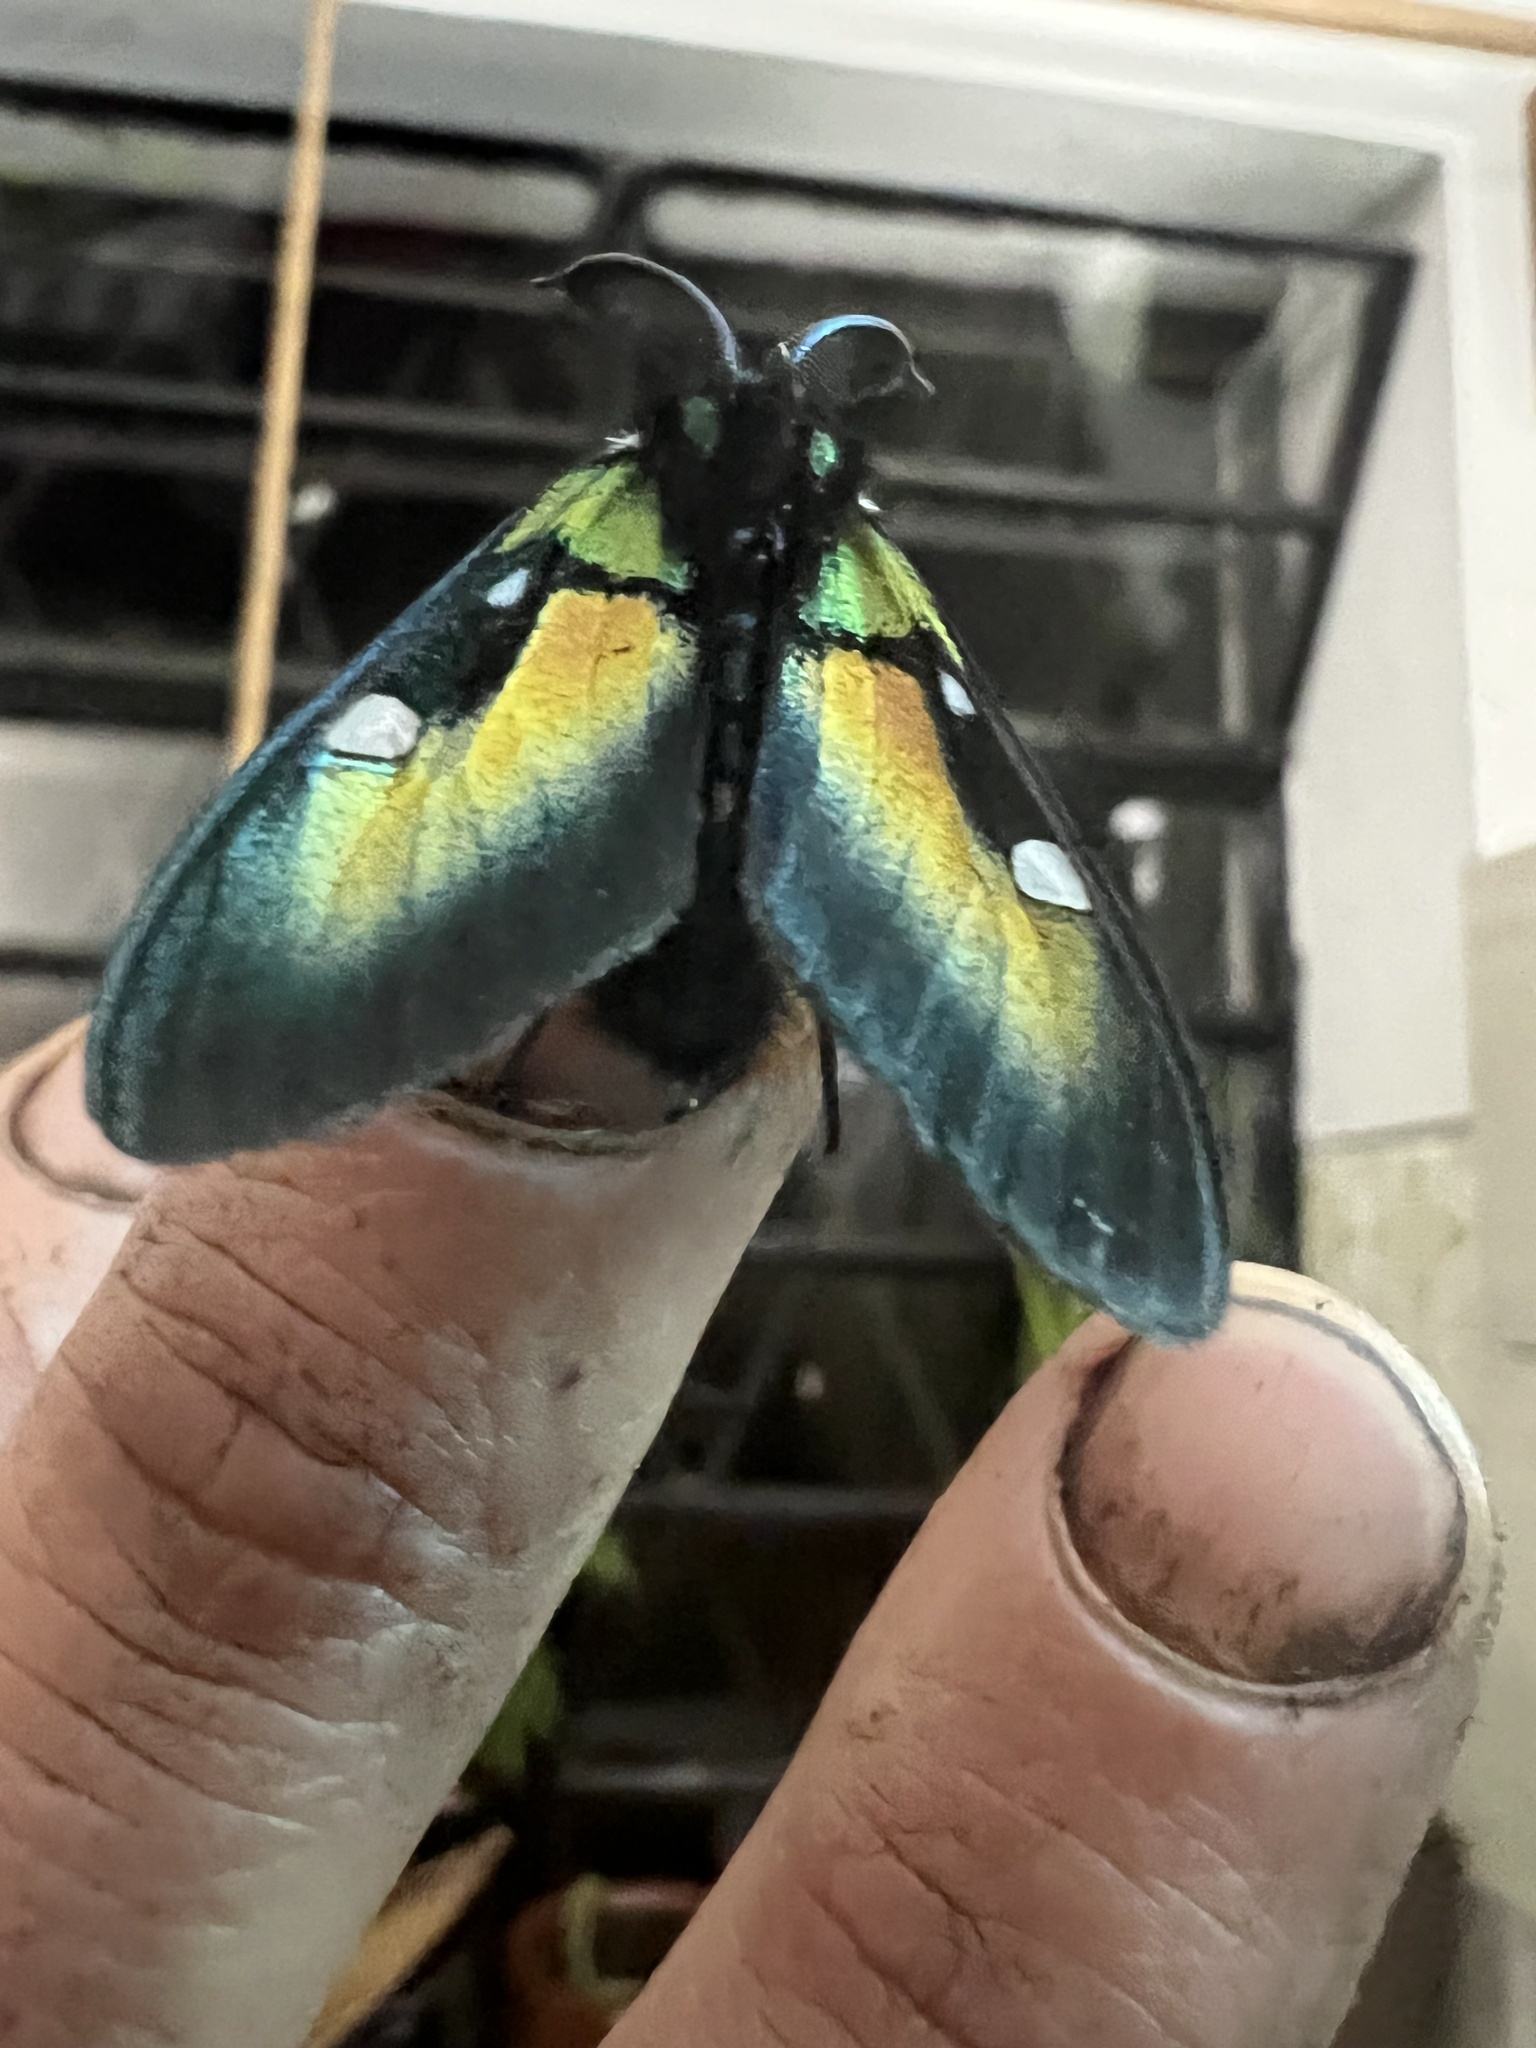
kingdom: Animalia
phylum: Arthropoda
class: Insecta
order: Lepidoptera
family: Erebidae
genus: Chrysocale
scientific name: Chrysocale ignita
